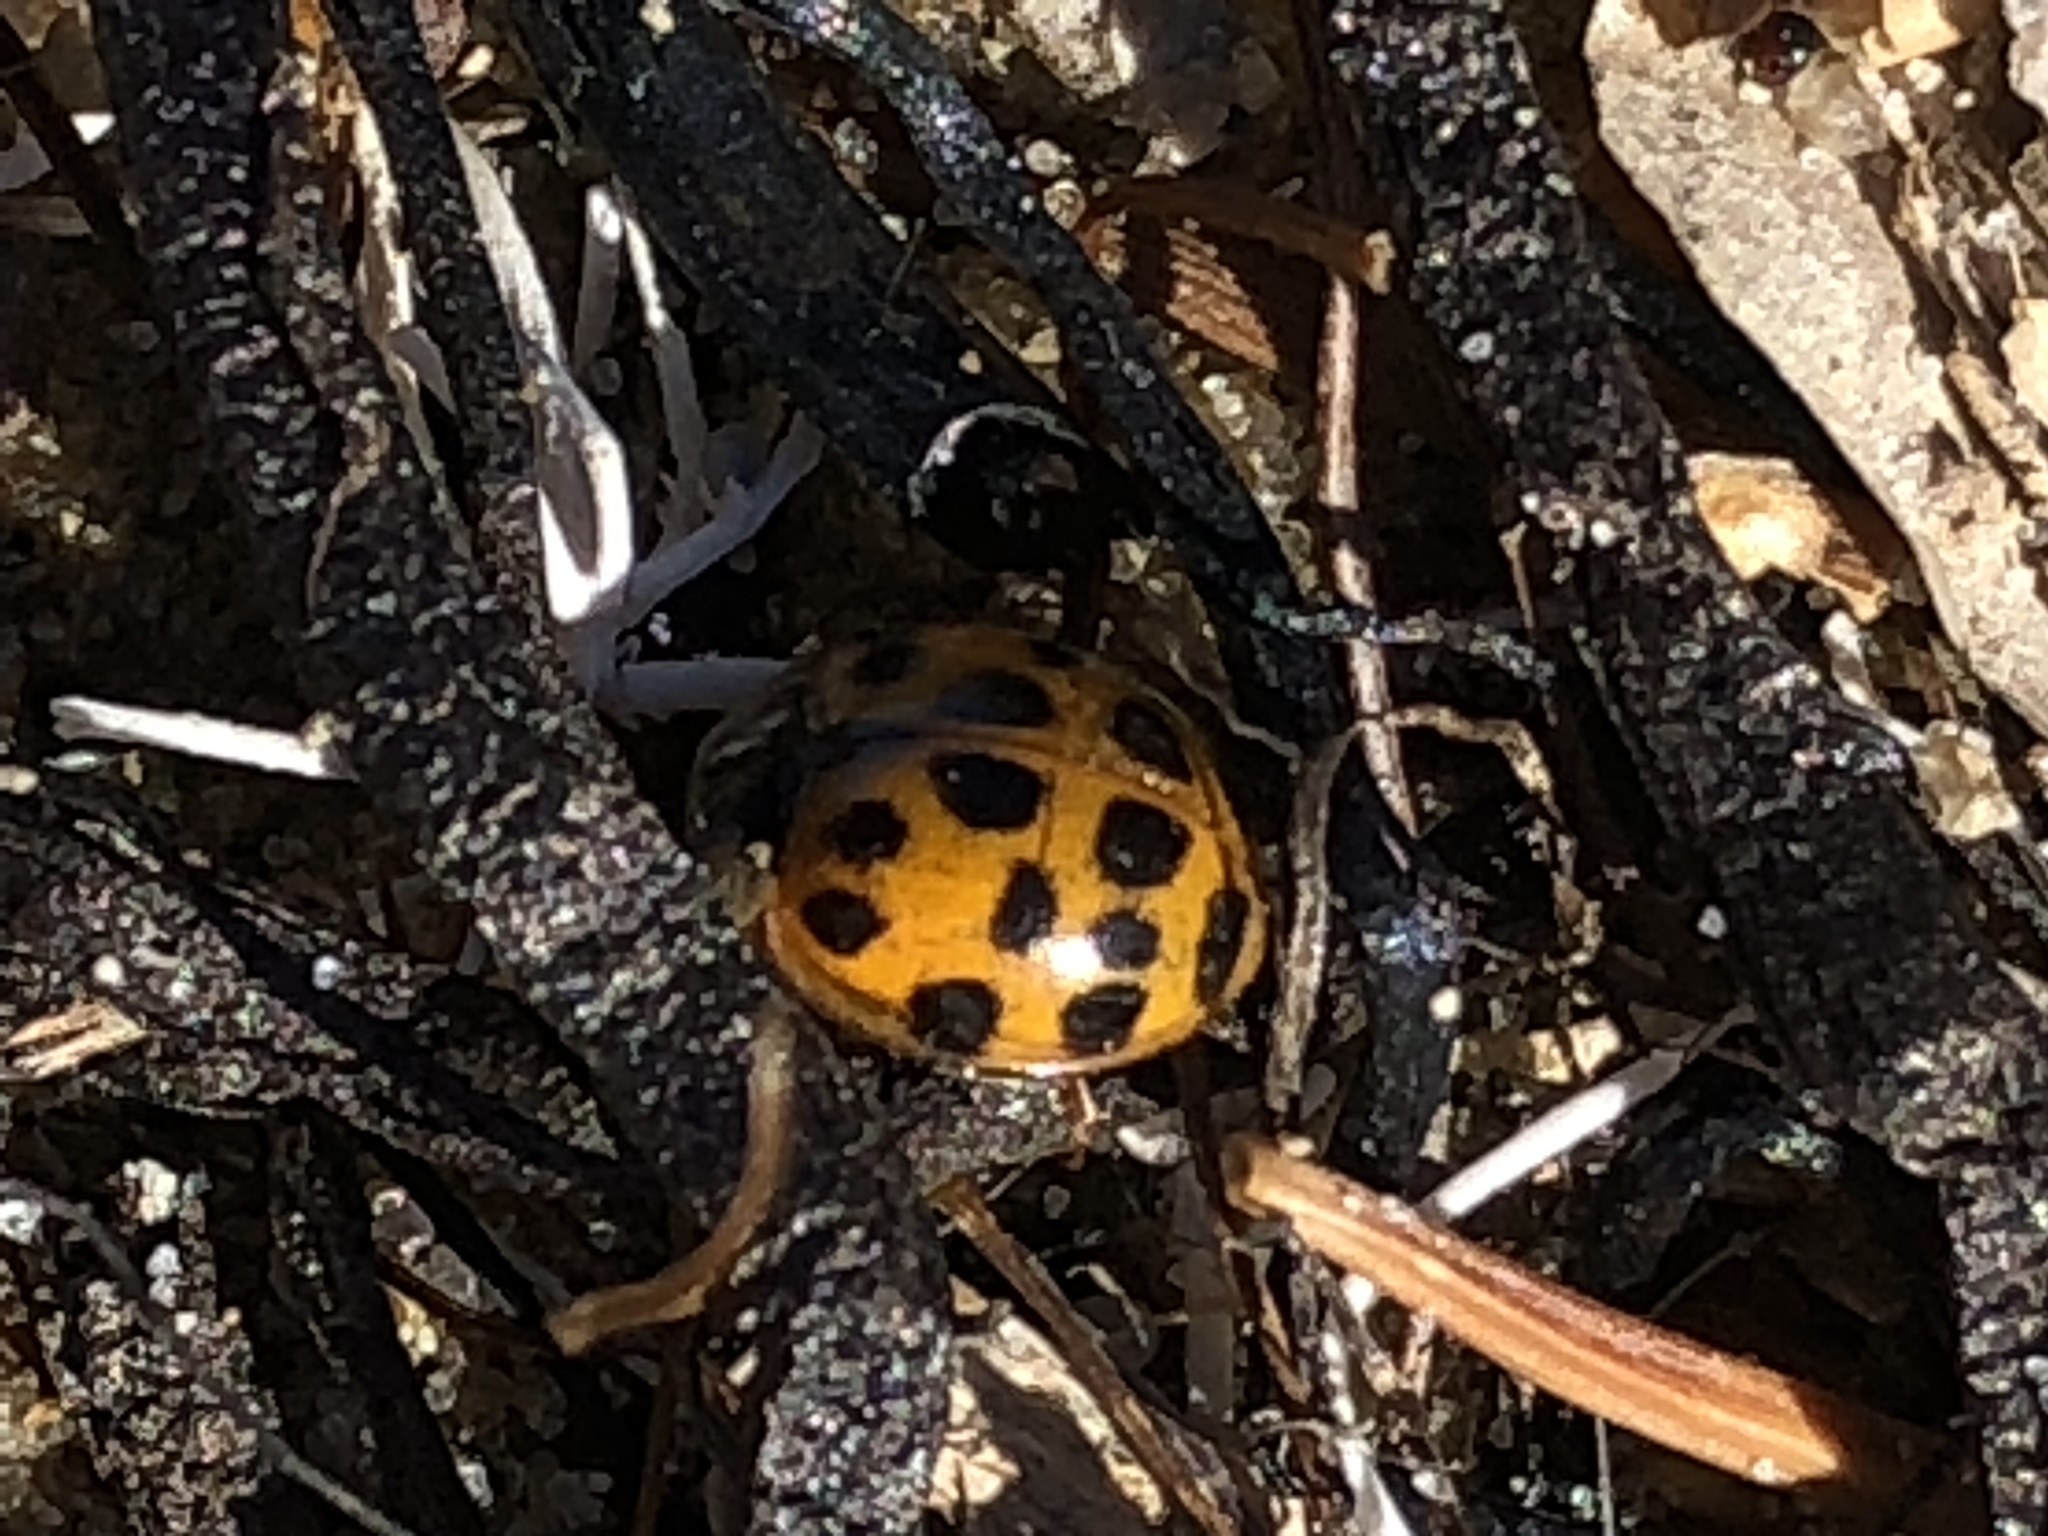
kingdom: Animalia
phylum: Arthropoda
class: Insecta
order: Coleoptera
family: Coccinellidae
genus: Harmonia
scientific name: Harmonia axyridis
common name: Harlequin ladybird
